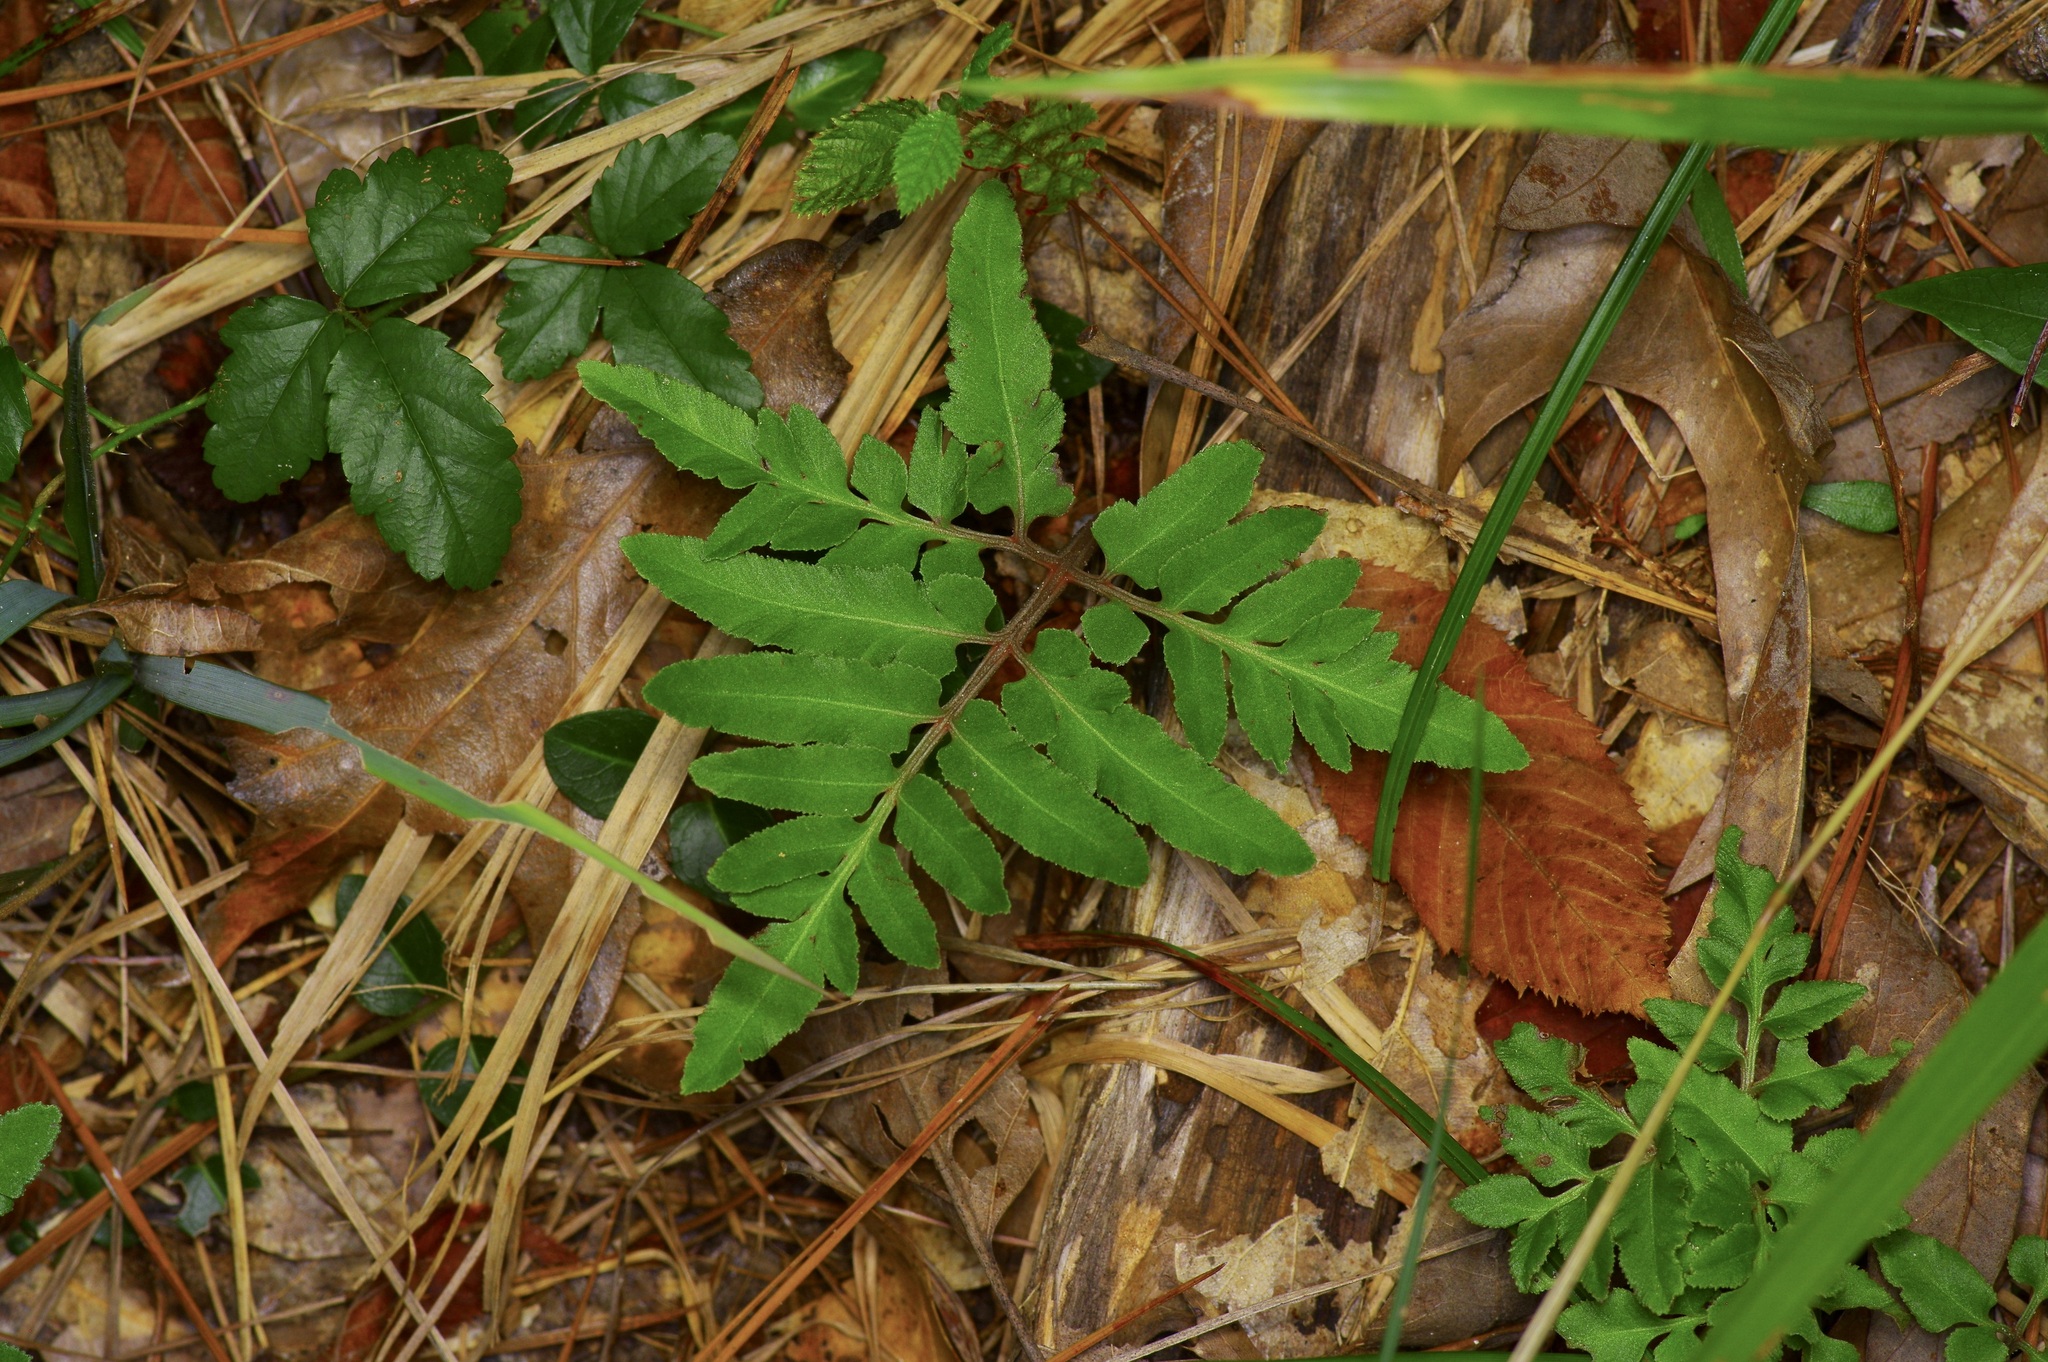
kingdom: Plantae
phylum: Tracheophyta
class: Polypodiopsida
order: Ophioglossales
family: Ophioglossaceae
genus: Sceptridium
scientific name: Sceptridium biternatum
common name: Sparse-lobed grapefern
